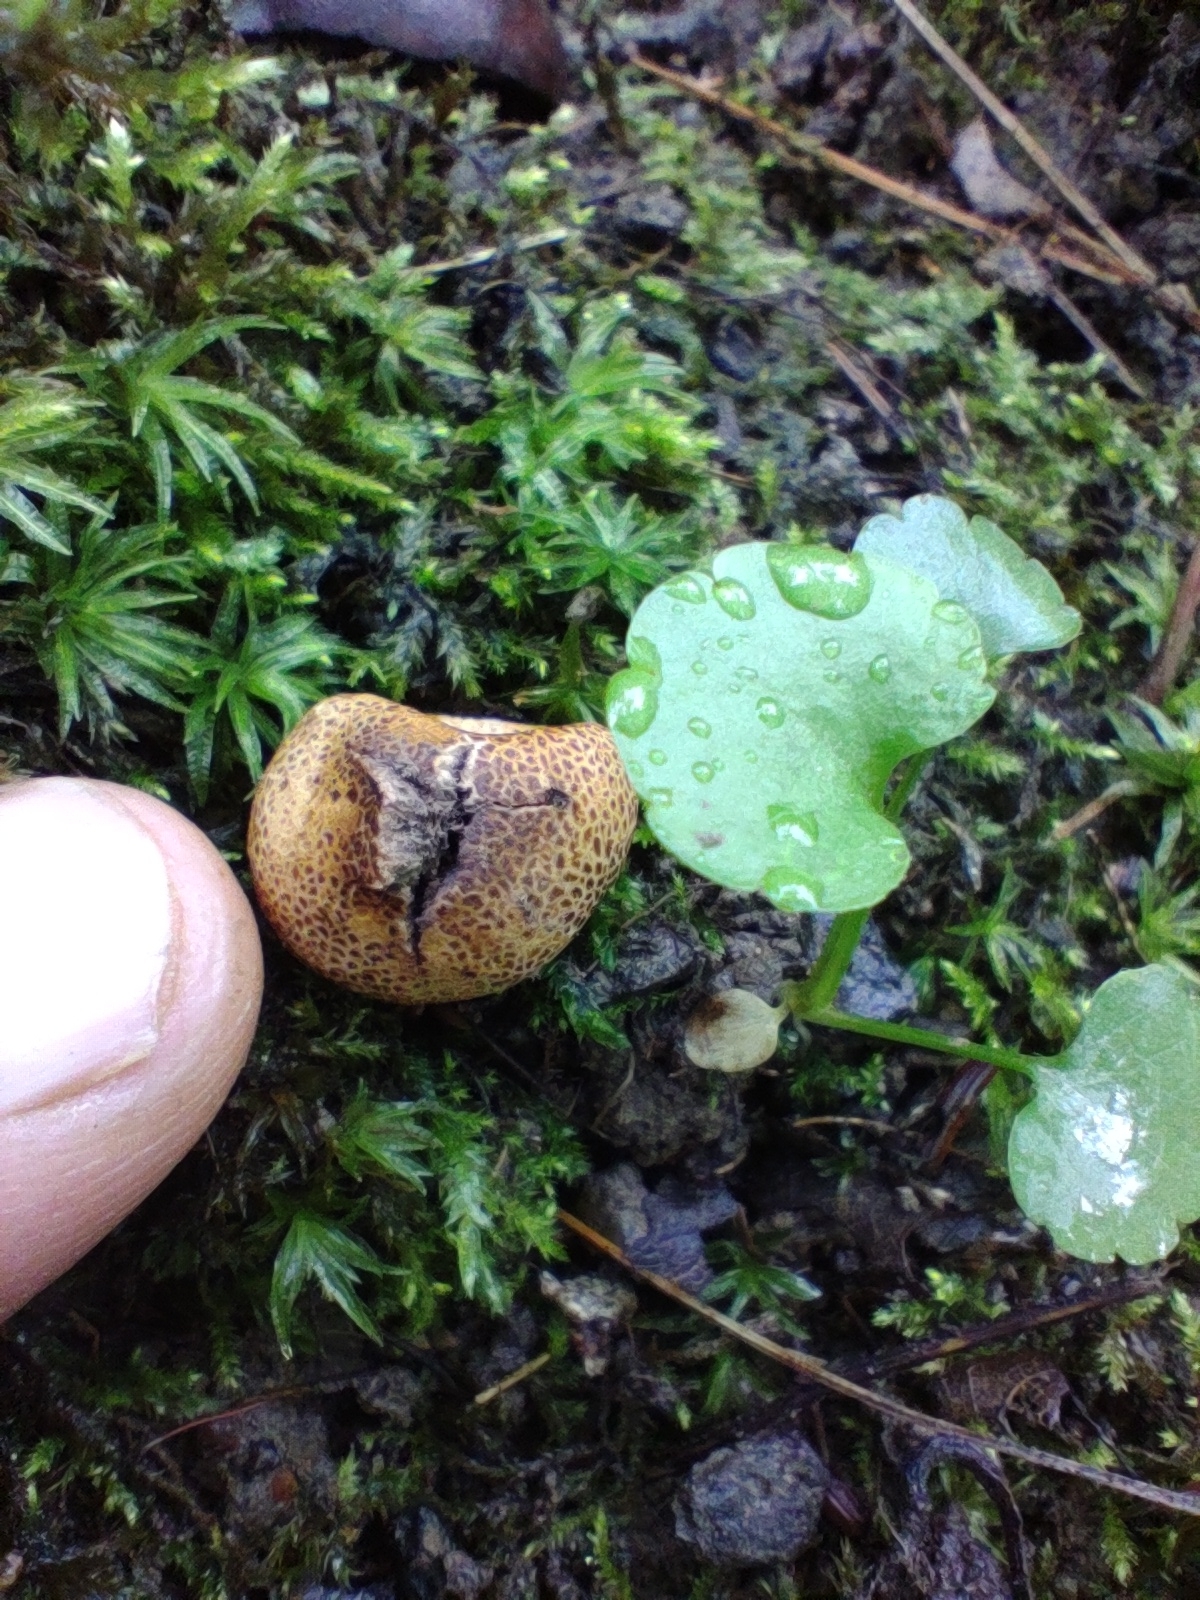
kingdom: Fungi
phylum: Basidiomycota
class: Agaricomycetes
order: Boletales
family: Sclerodermataceae
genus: Scleroderma
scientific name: Scleroderma areolatum
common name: Leopard earthball
